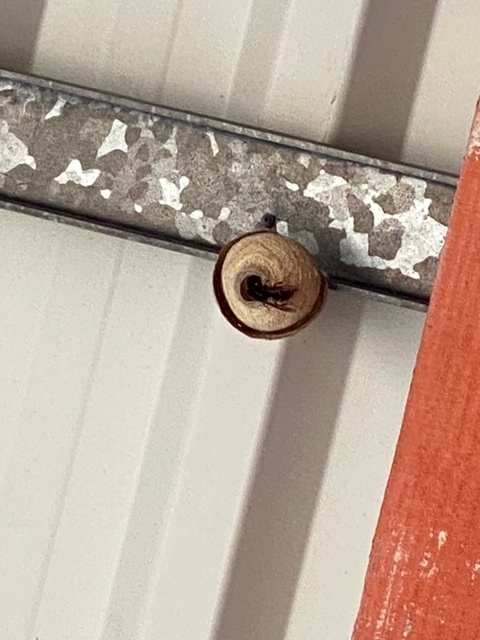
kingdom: Animalia
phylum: Arthropoda
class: Insecta
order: Hymenoptera
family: Vespidae
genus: Vespa
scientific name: Vespa velutina
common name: Asian hornet
